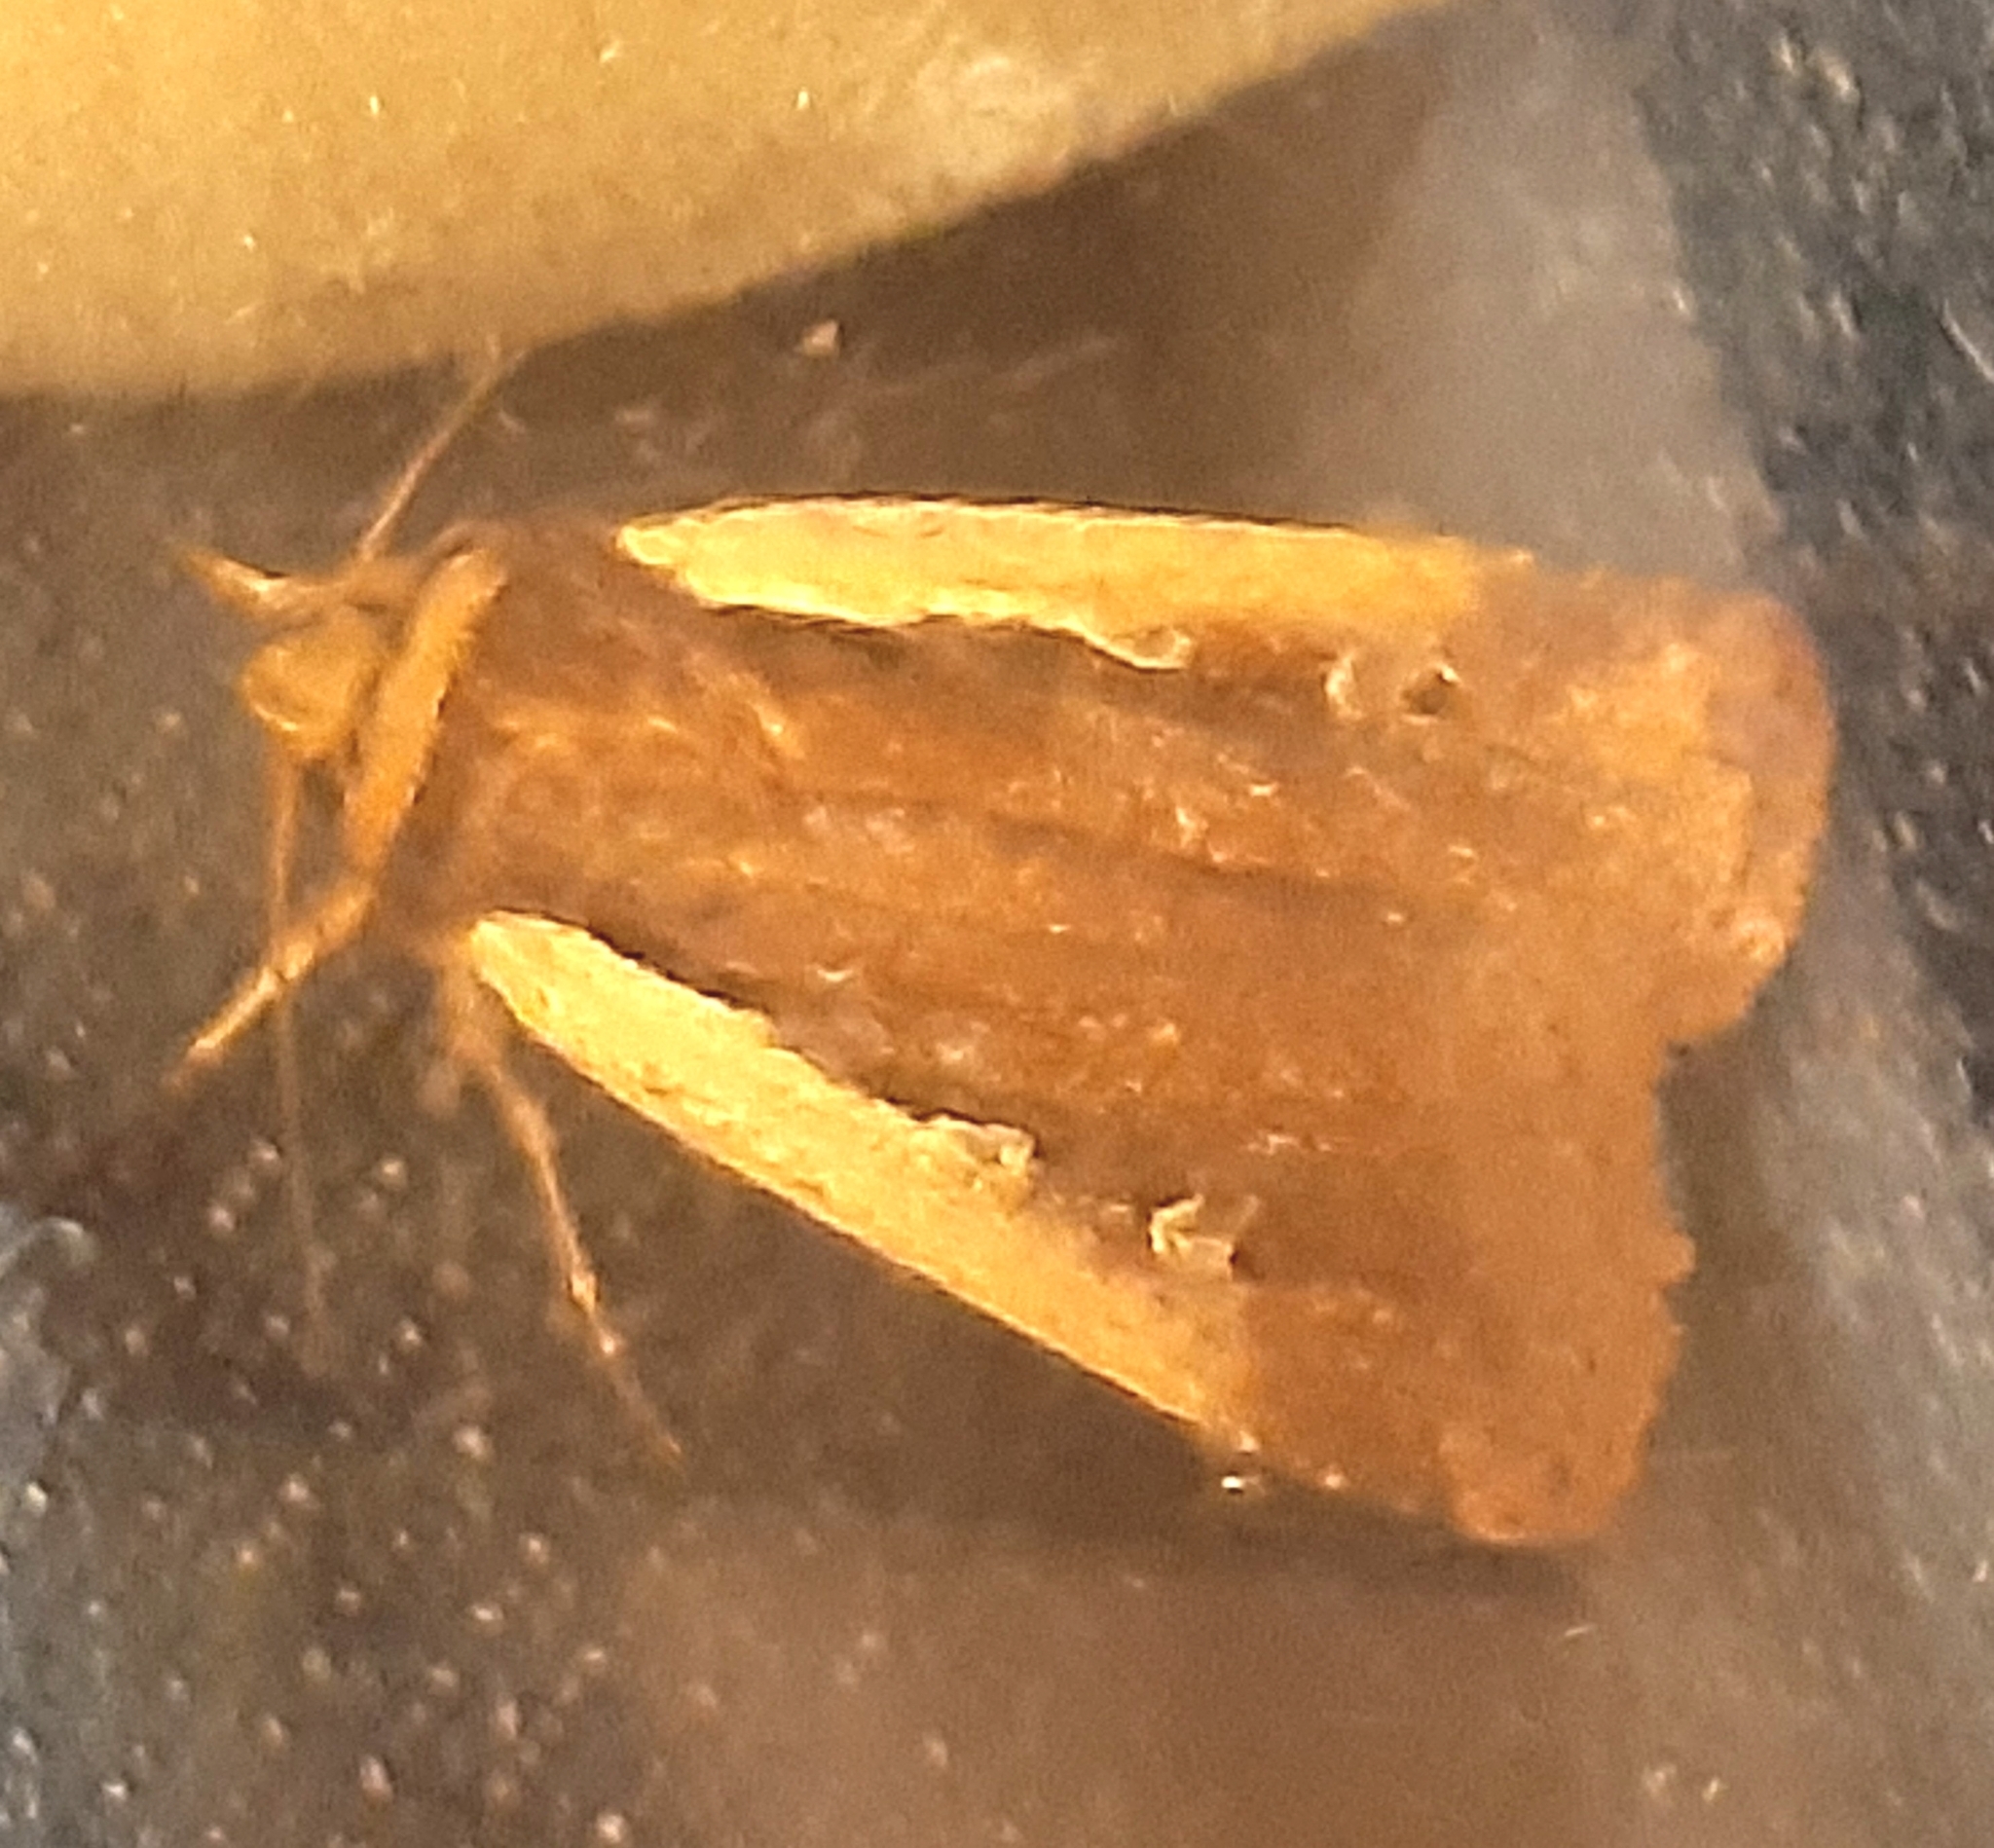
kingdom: Animalia
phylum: Arthropoda
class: Insecta
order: Lepidoptera
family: Noctuidae
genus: Ochropleura
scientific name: Ochropleura plecta
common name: Flame shoulder
